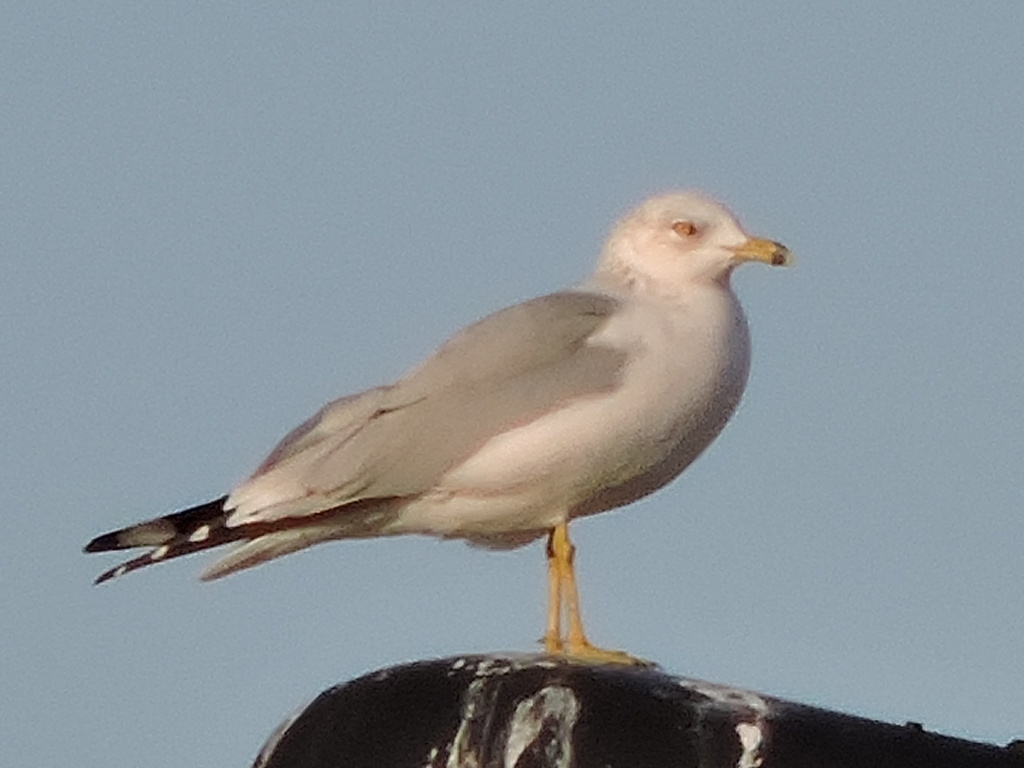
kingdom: Animalia
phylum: Chordata
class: Aves
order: Charadriiformes
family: Laridae
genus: Larus
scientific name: Larus delawarensis
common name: Ring-billed gull
